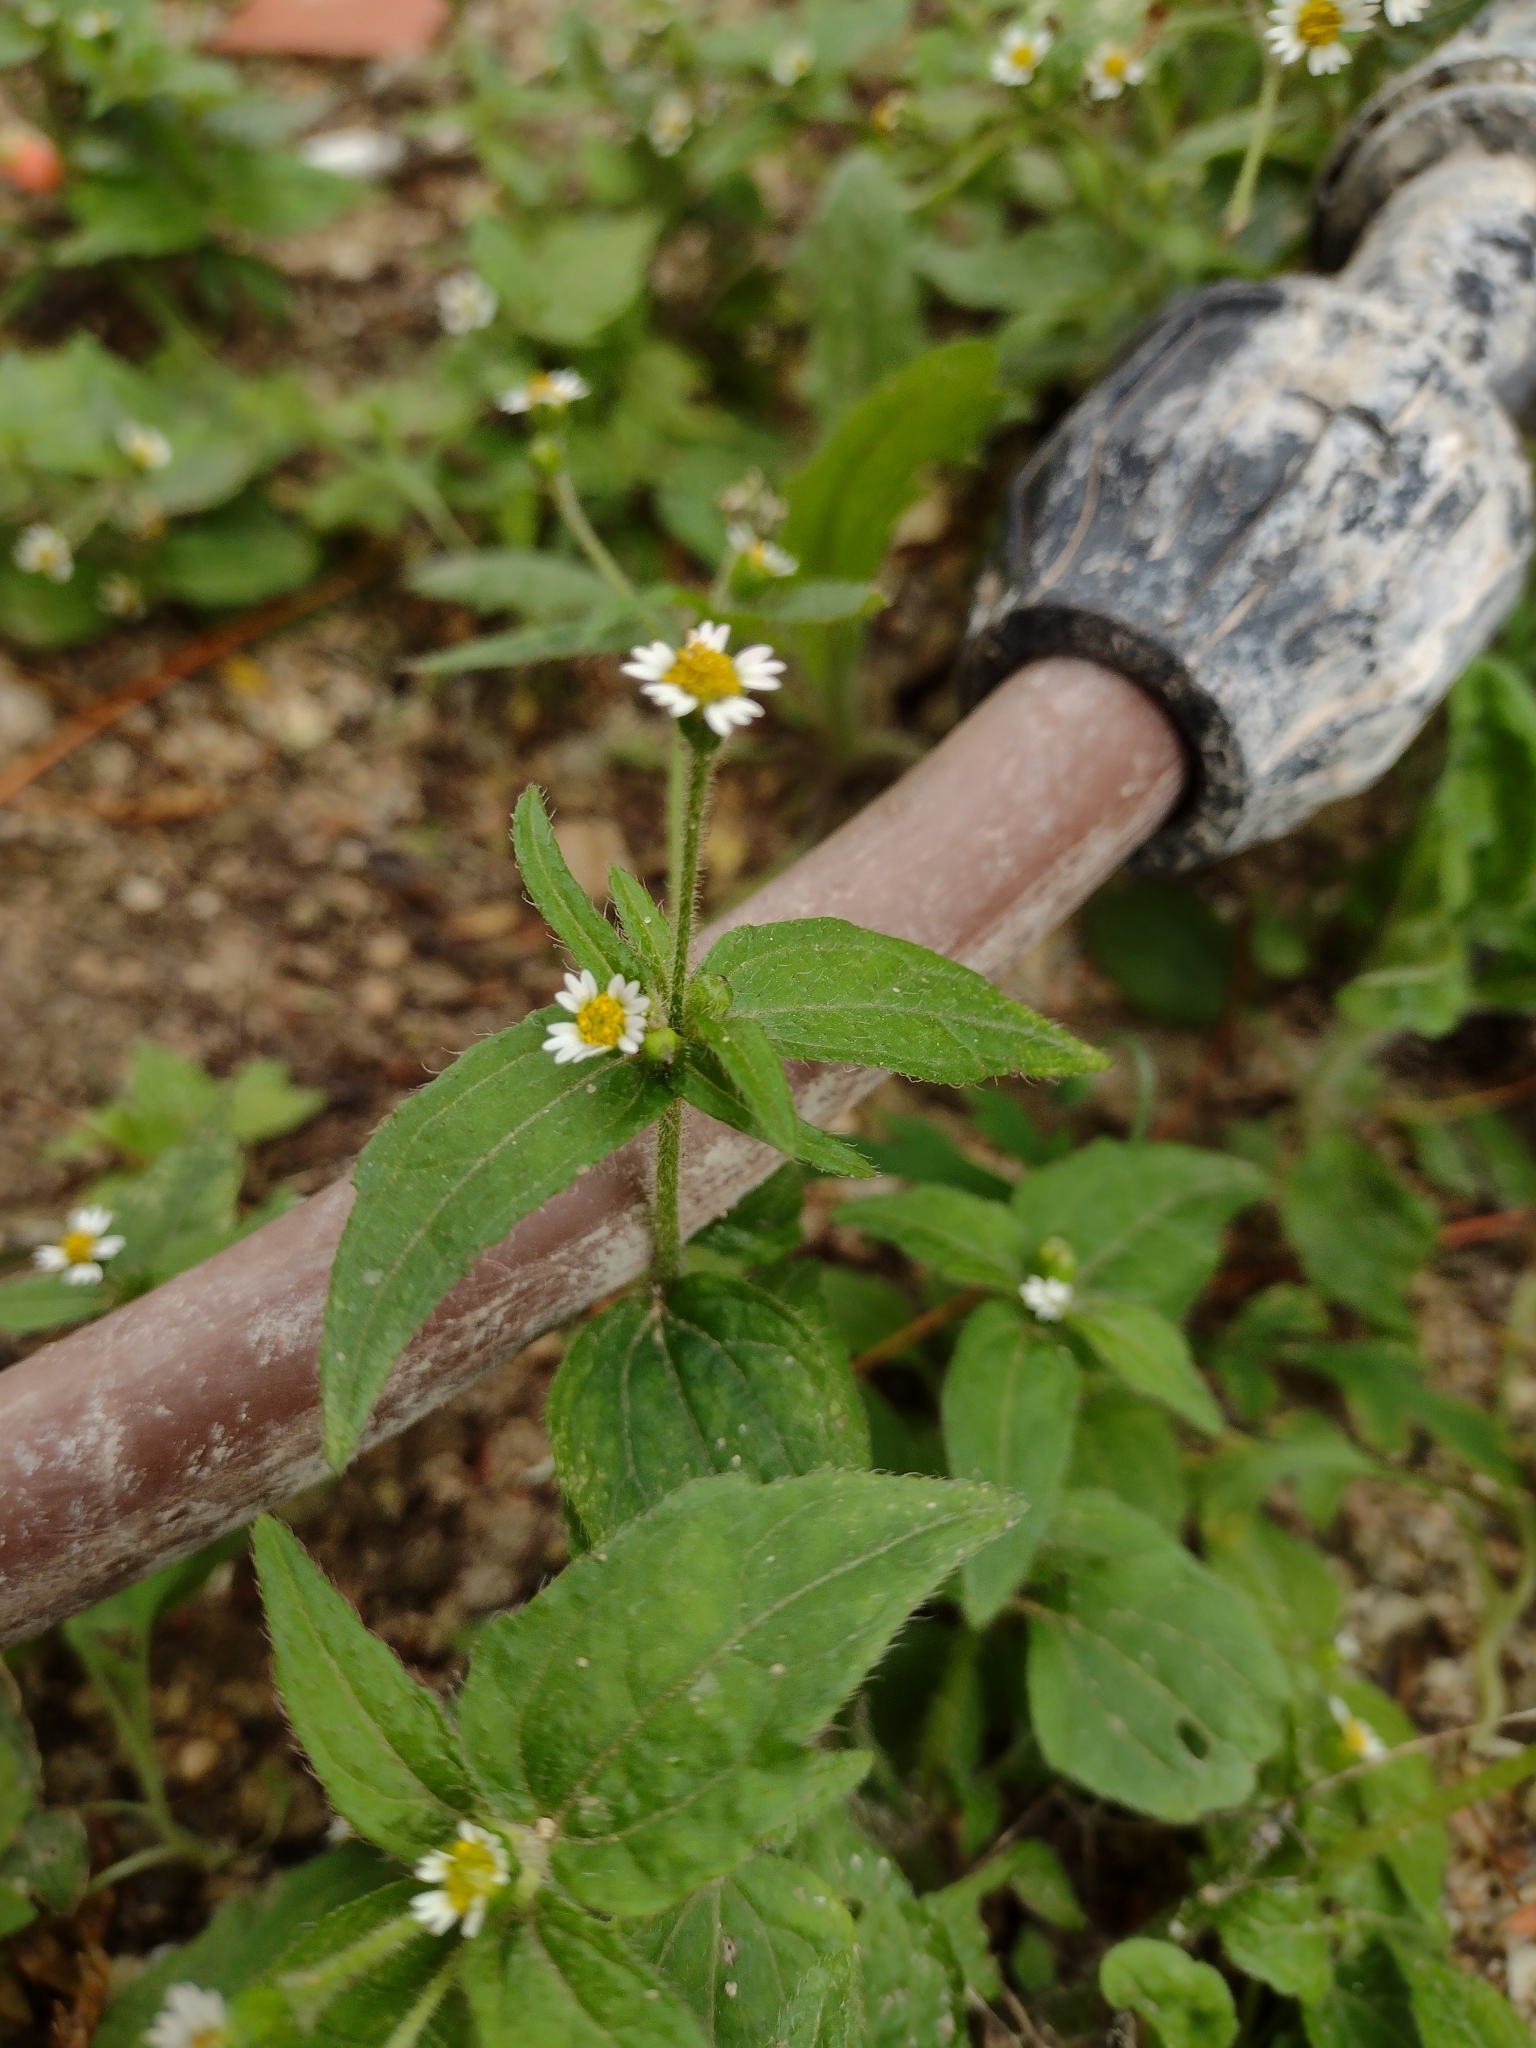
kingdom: Plantae
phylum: Tracheophyta
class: Magnoliopsida
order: Asterales
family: Asteraceae
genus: Galinsoga
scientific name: Galinsoga parviflora
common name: Gallant soldier
